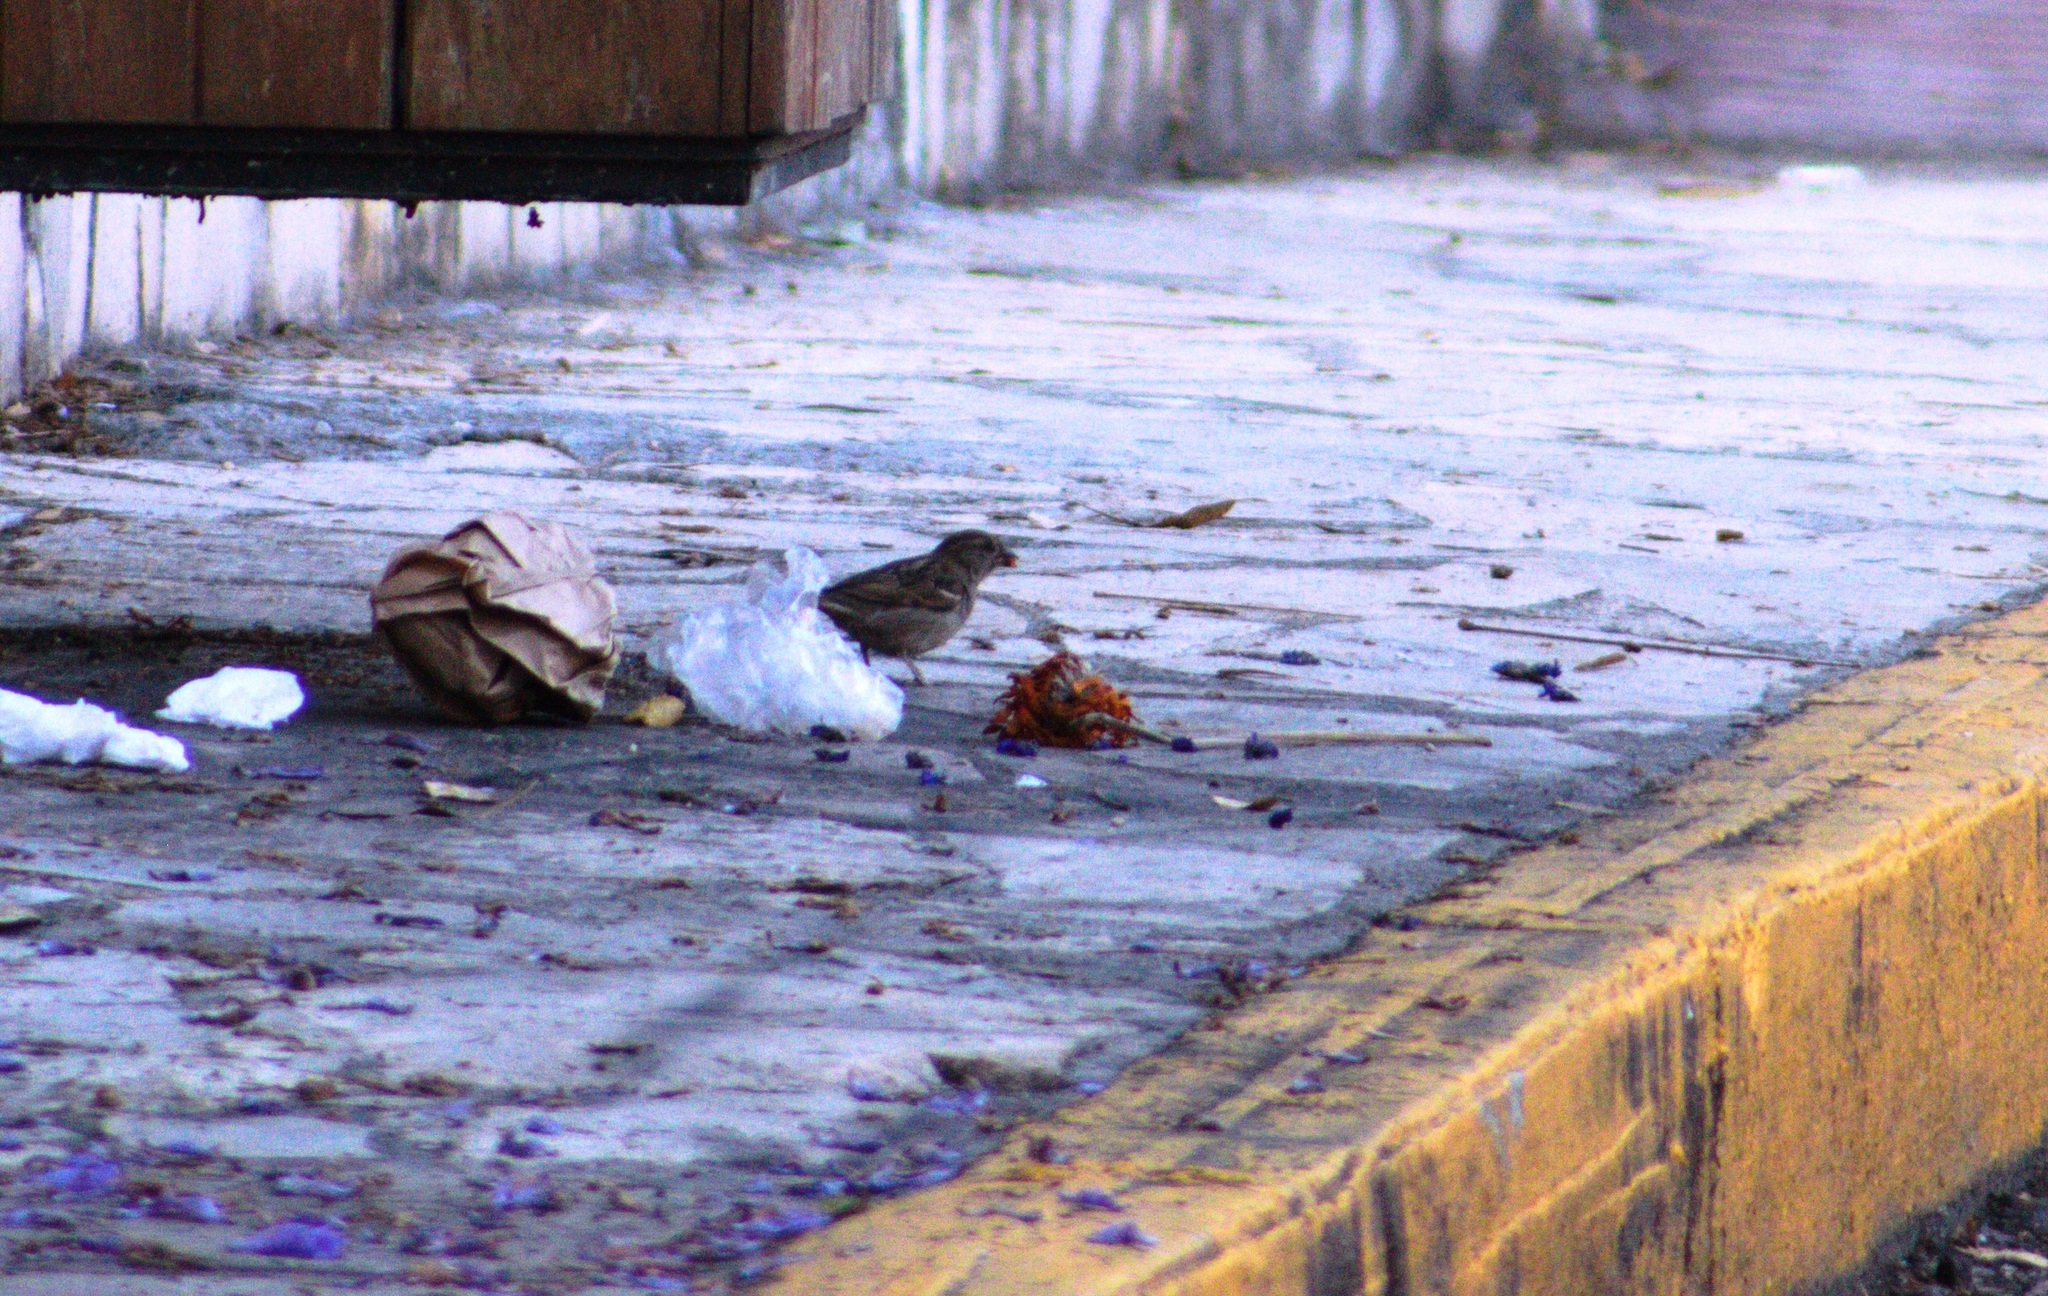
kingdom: Animalia
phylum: Chordata
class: Aves
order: Passeriformes
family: Passeridae
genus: Passer
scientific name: Passer domesticus
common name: House sparrow
